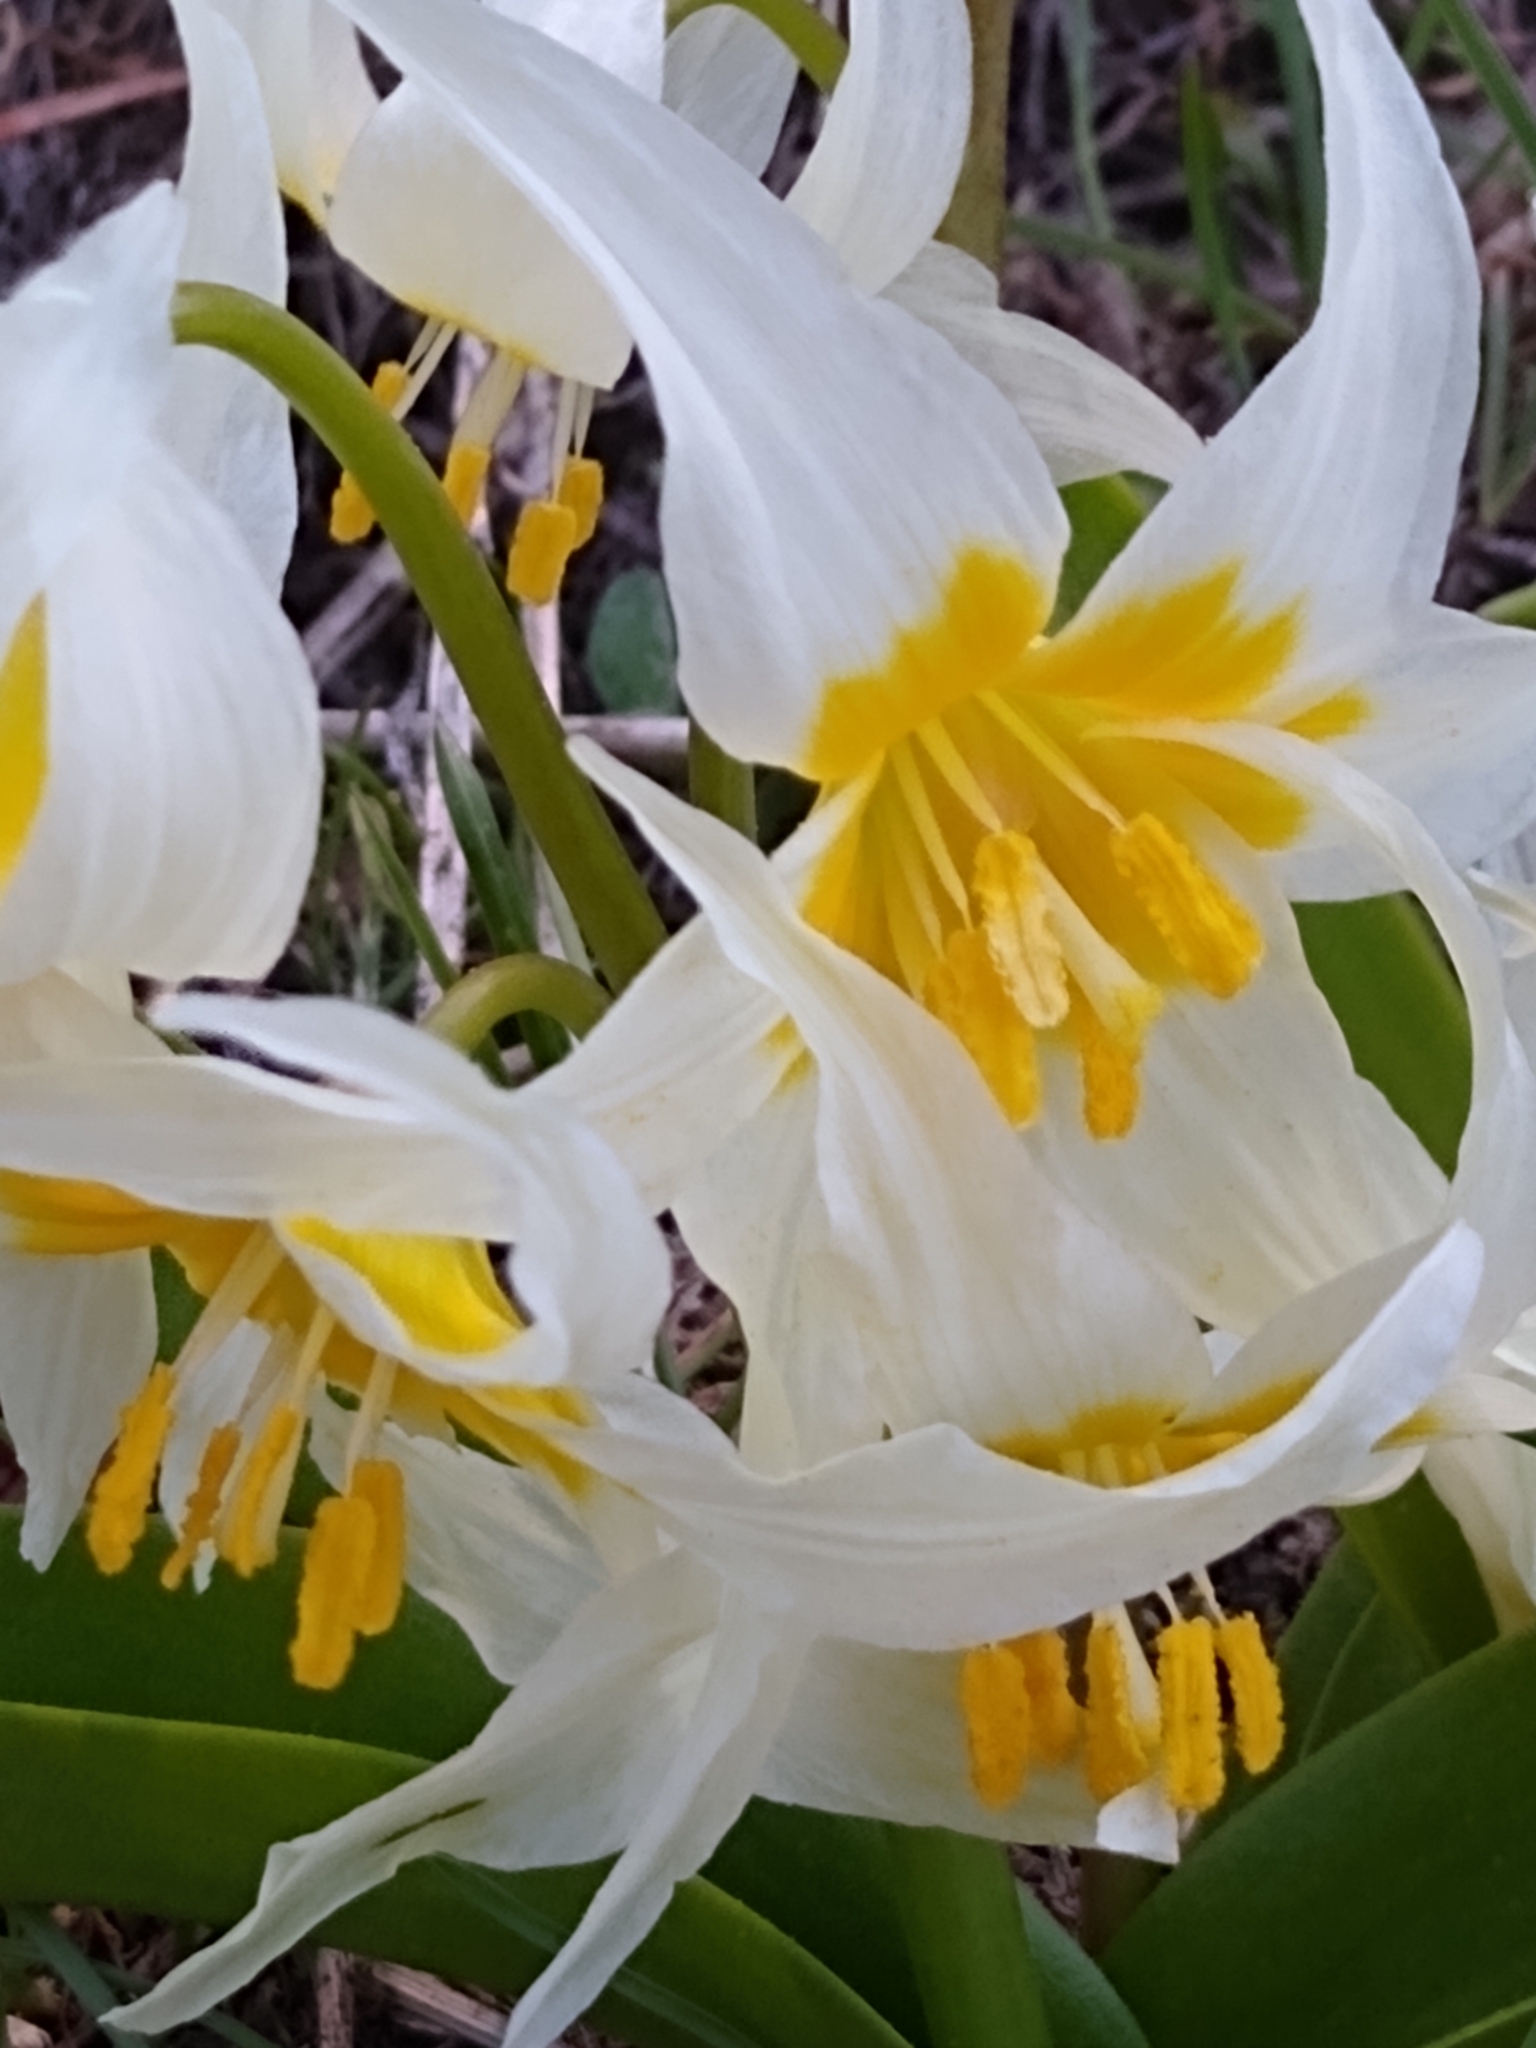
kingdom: Plantae
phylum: Tracheophyta
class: Liliopsida
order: Liliales
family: Liliaceae
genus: Erythronium
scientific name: Erythronium klamathense
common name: Klamath fawn-lily
